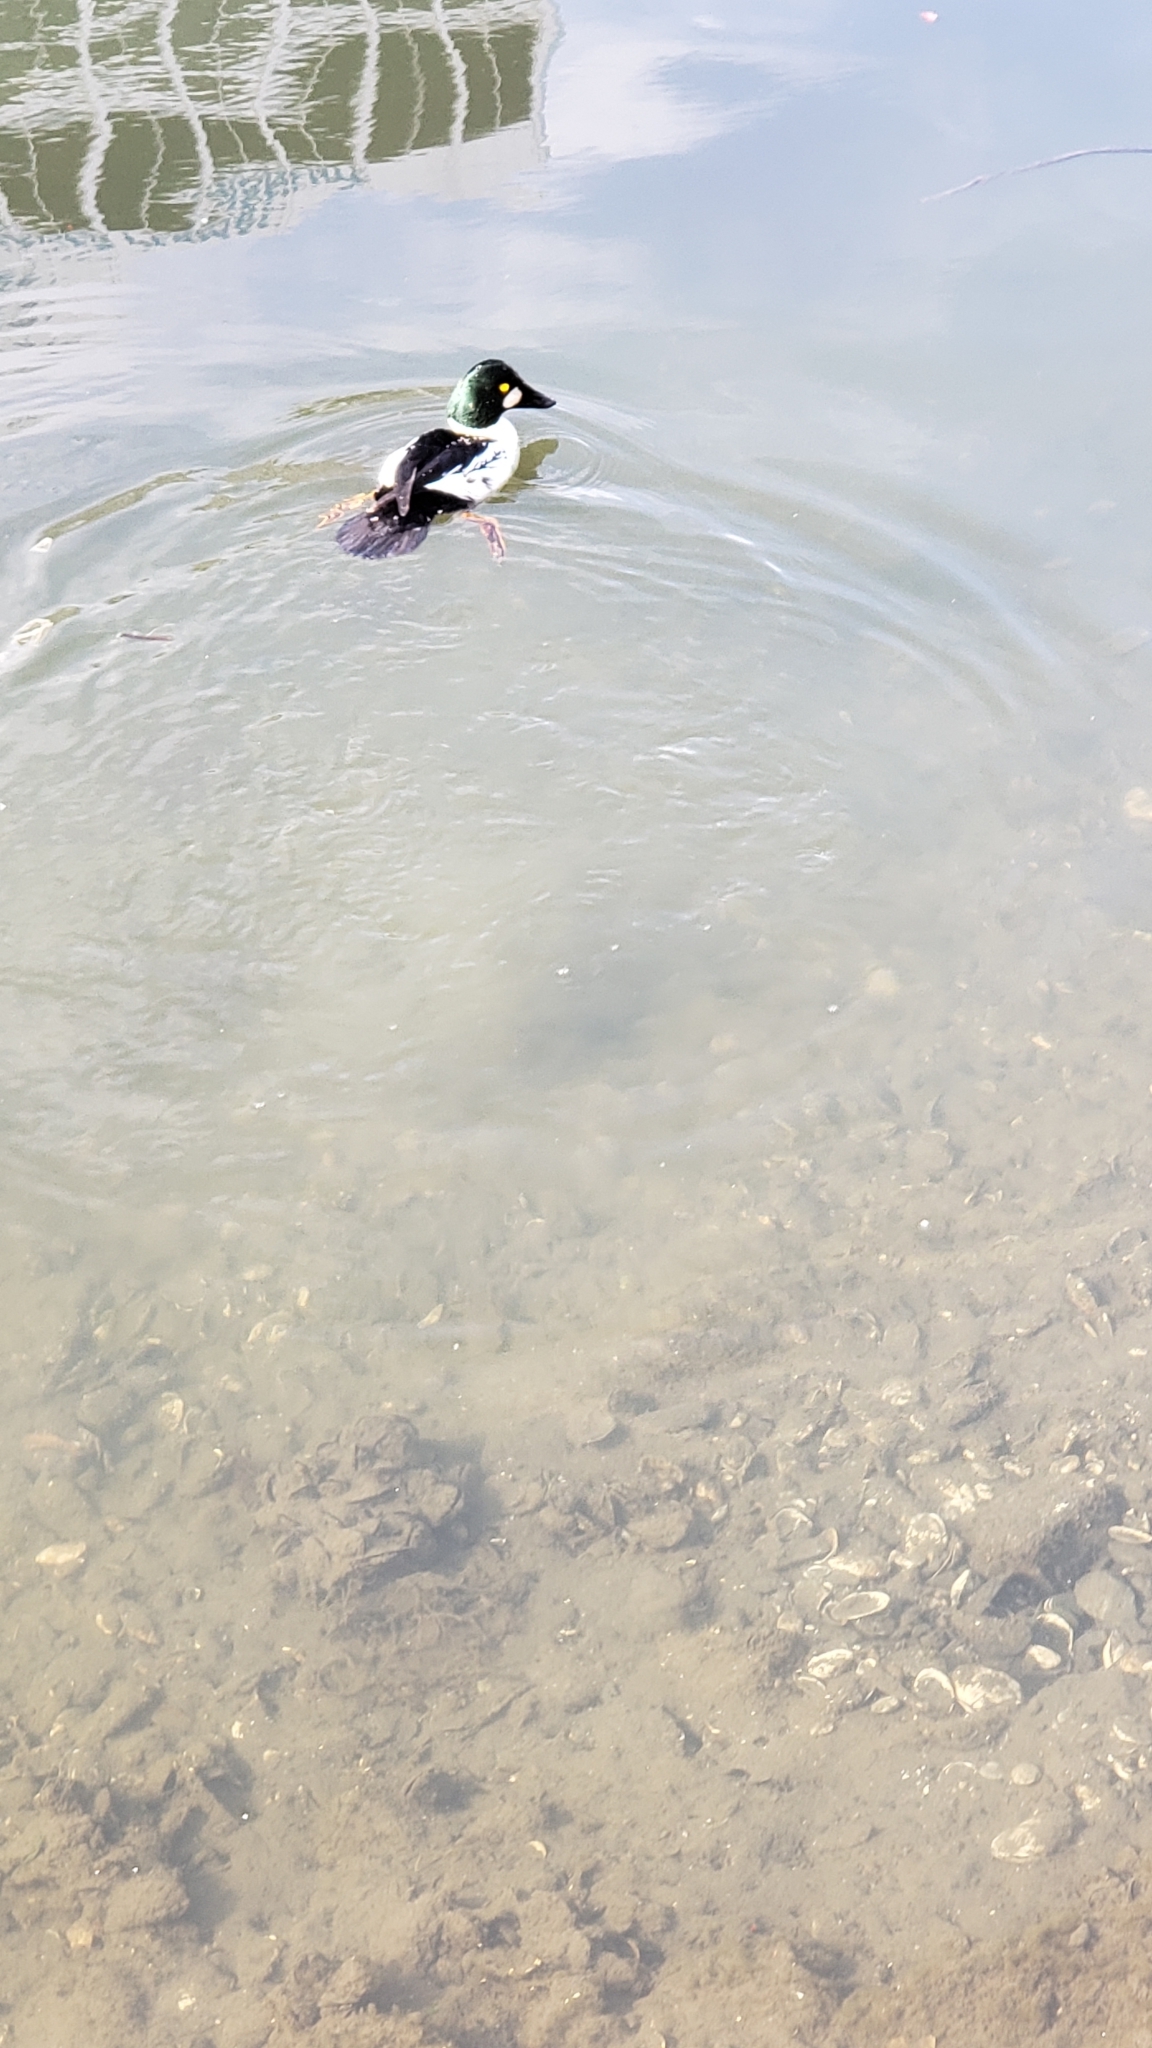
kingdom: Animalia
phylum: Chordata
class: Aves
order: Anseriformes
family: Anatidae
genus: Bucephala
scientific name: Bucephala clangula
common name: Common goldeneye
